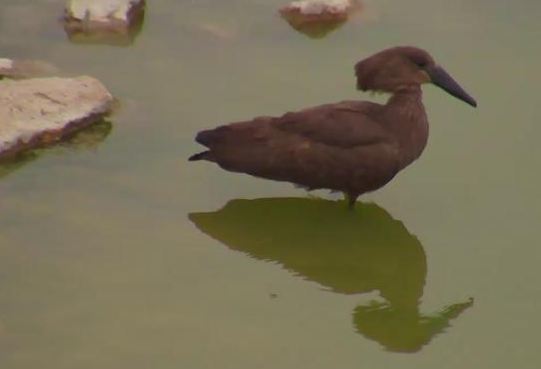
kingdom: Animalia
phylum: Chordata
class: Aves
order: Pelecaniformes
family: Scopidae
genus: Scopus
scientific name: Scopus umbretta
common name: Hamerkop
